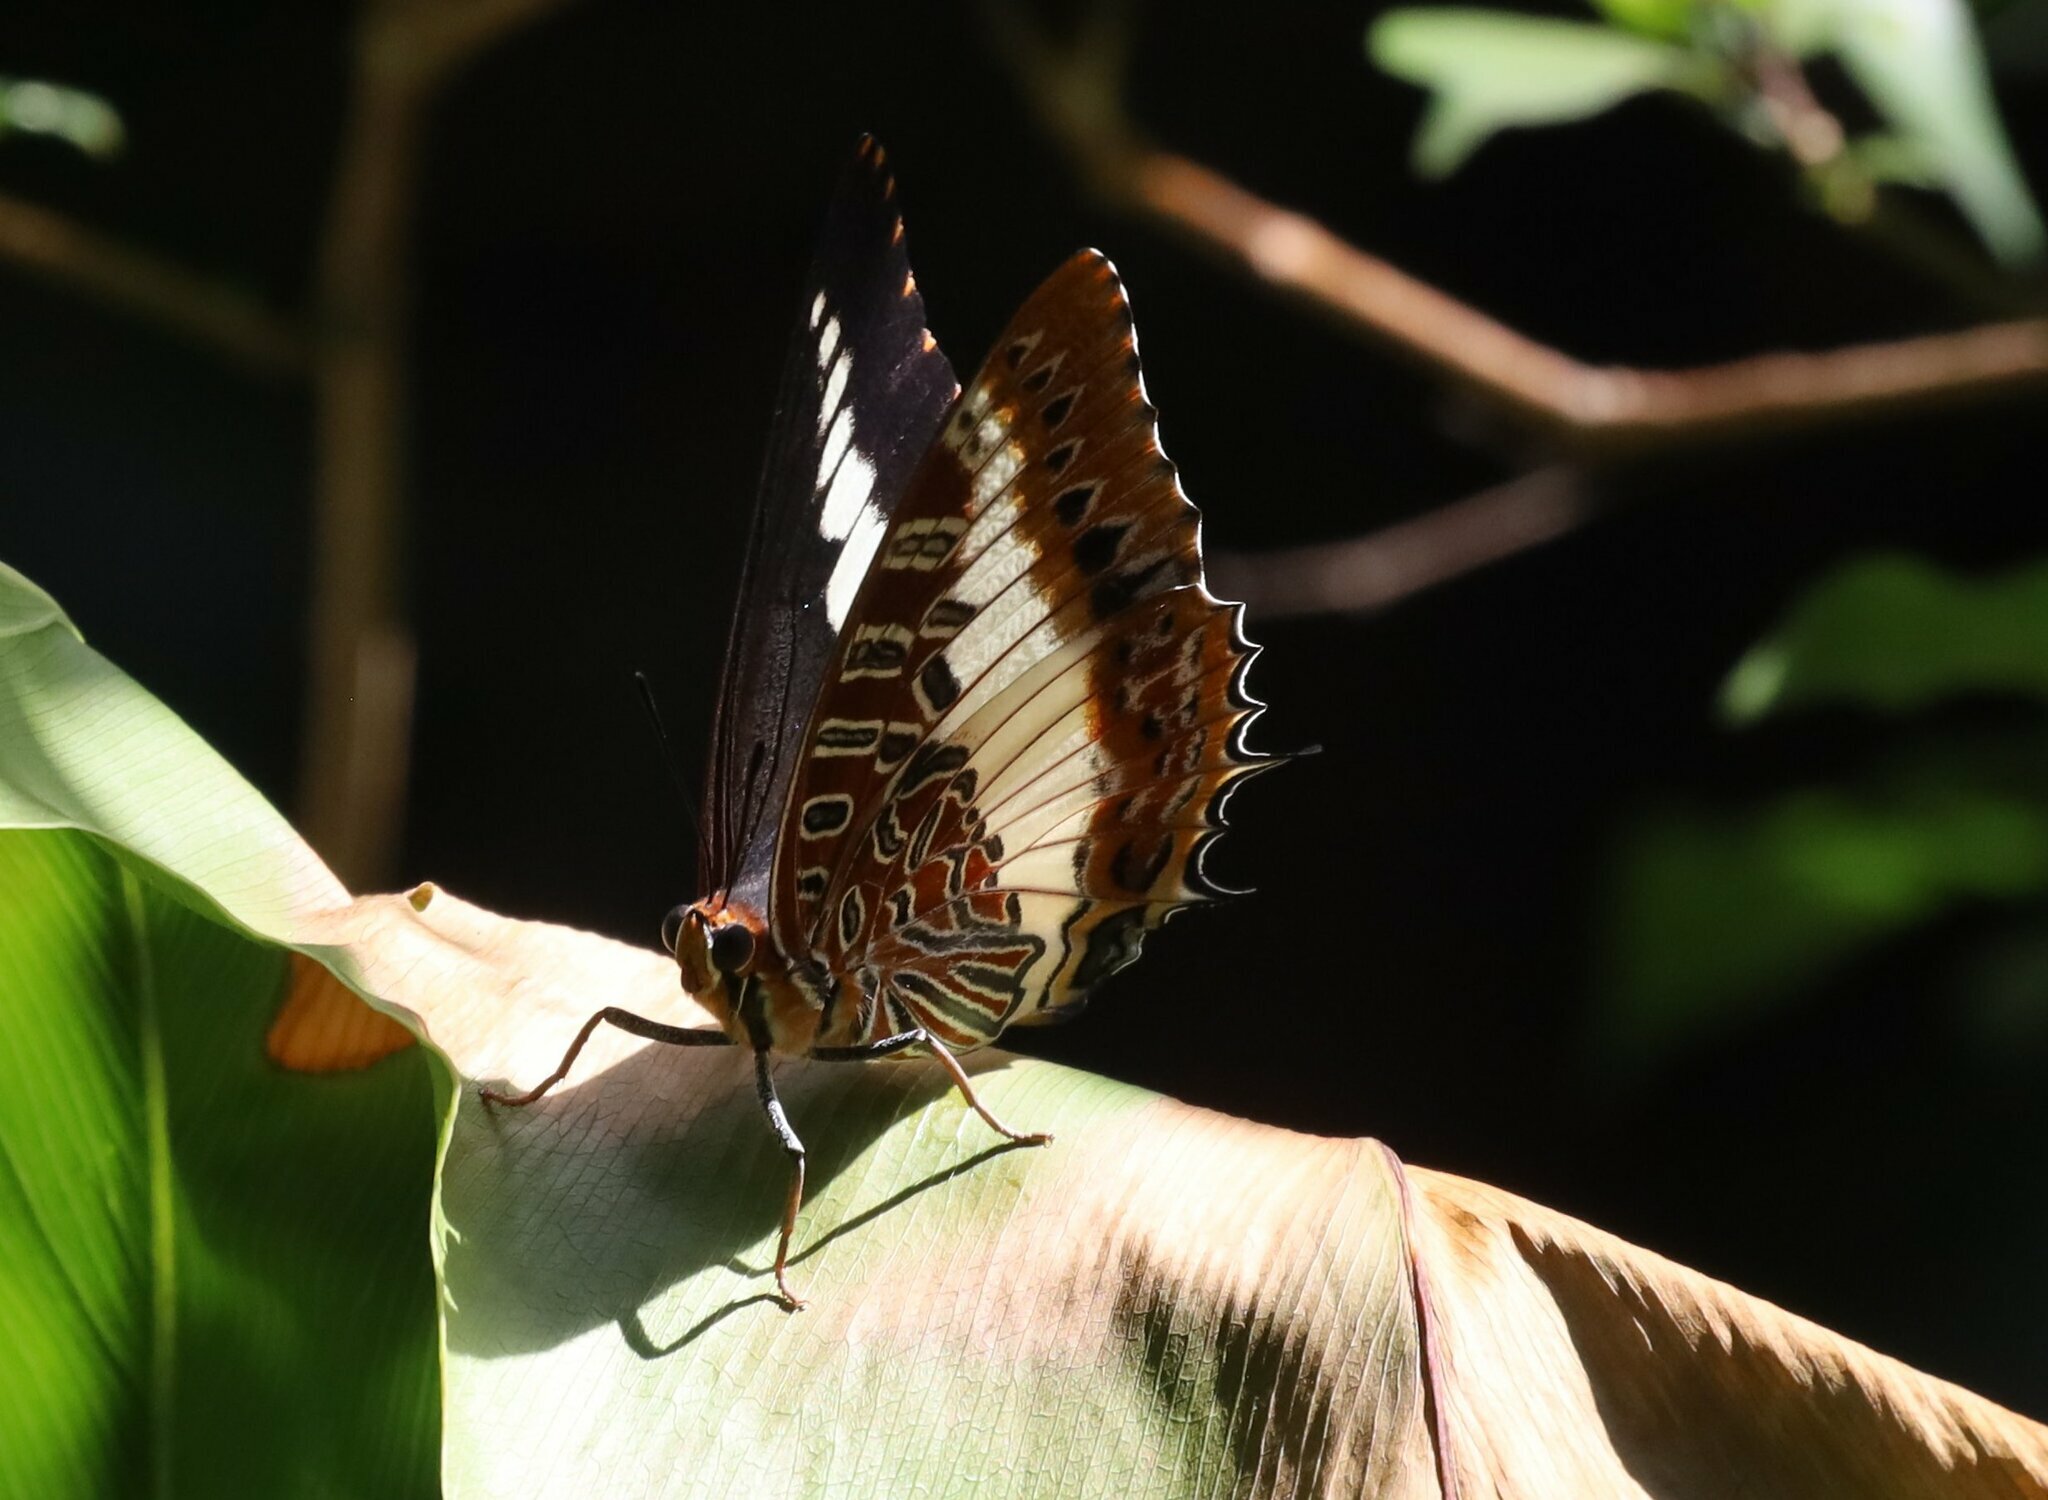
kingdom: Animalia
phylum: Arthropoda
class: Insecta
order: Lepidoptera
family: Nymphalidae
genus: Charaxes
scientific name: Charaxes brutus
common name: White-barred charaxes
